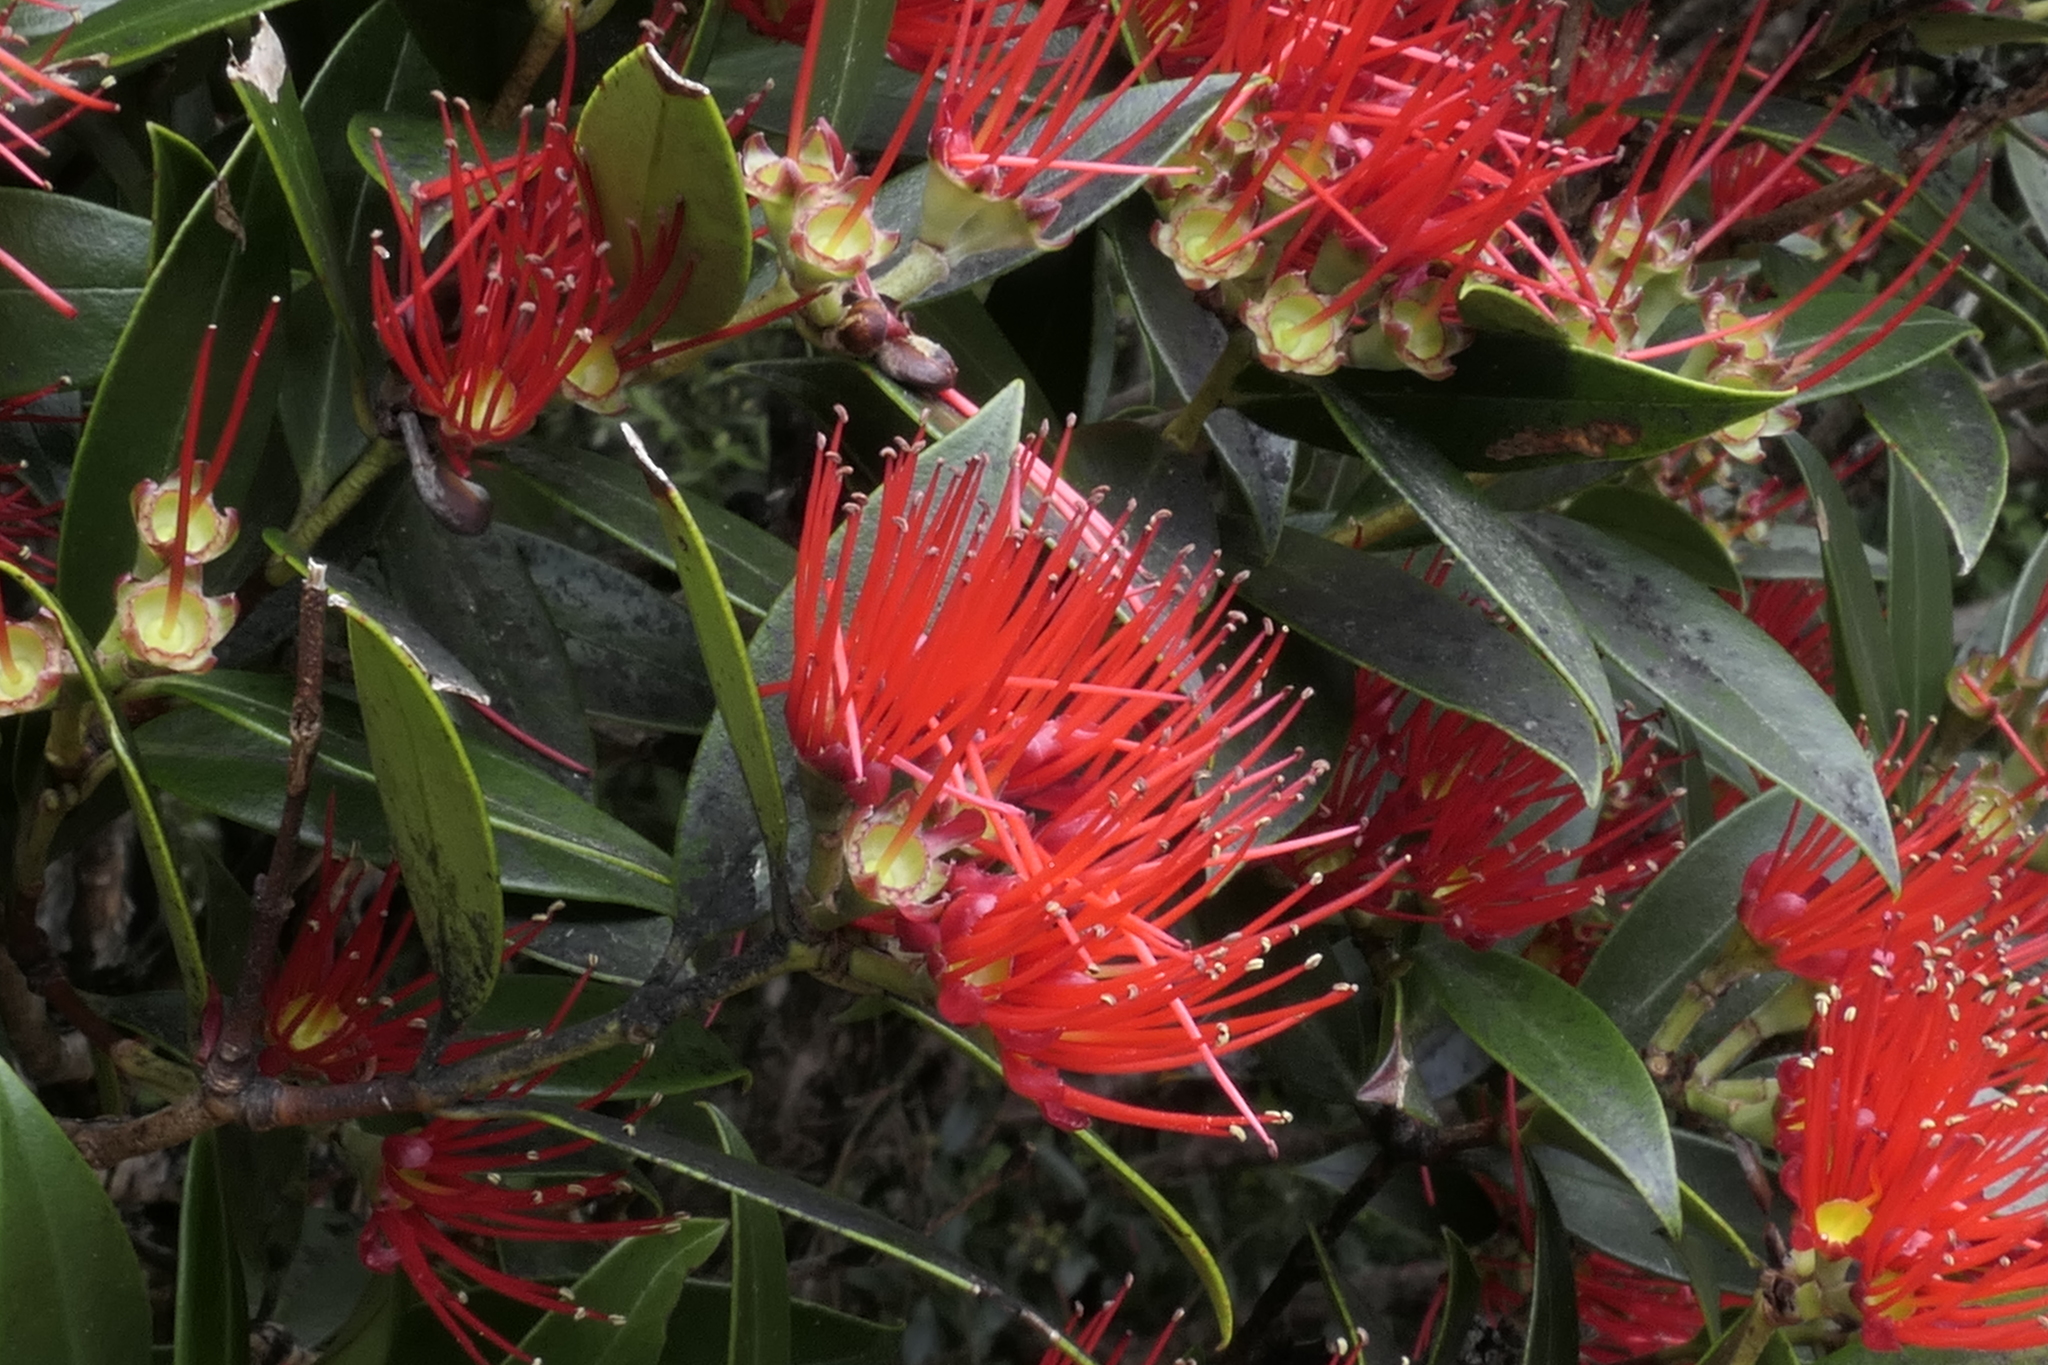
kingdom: Plantae
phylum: Tracheophyta
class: Magnoliopsida
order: Myrtales
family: Myrtaceae
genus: Metrosideros
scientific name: Metrosideros umbellata
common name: Southern rata
